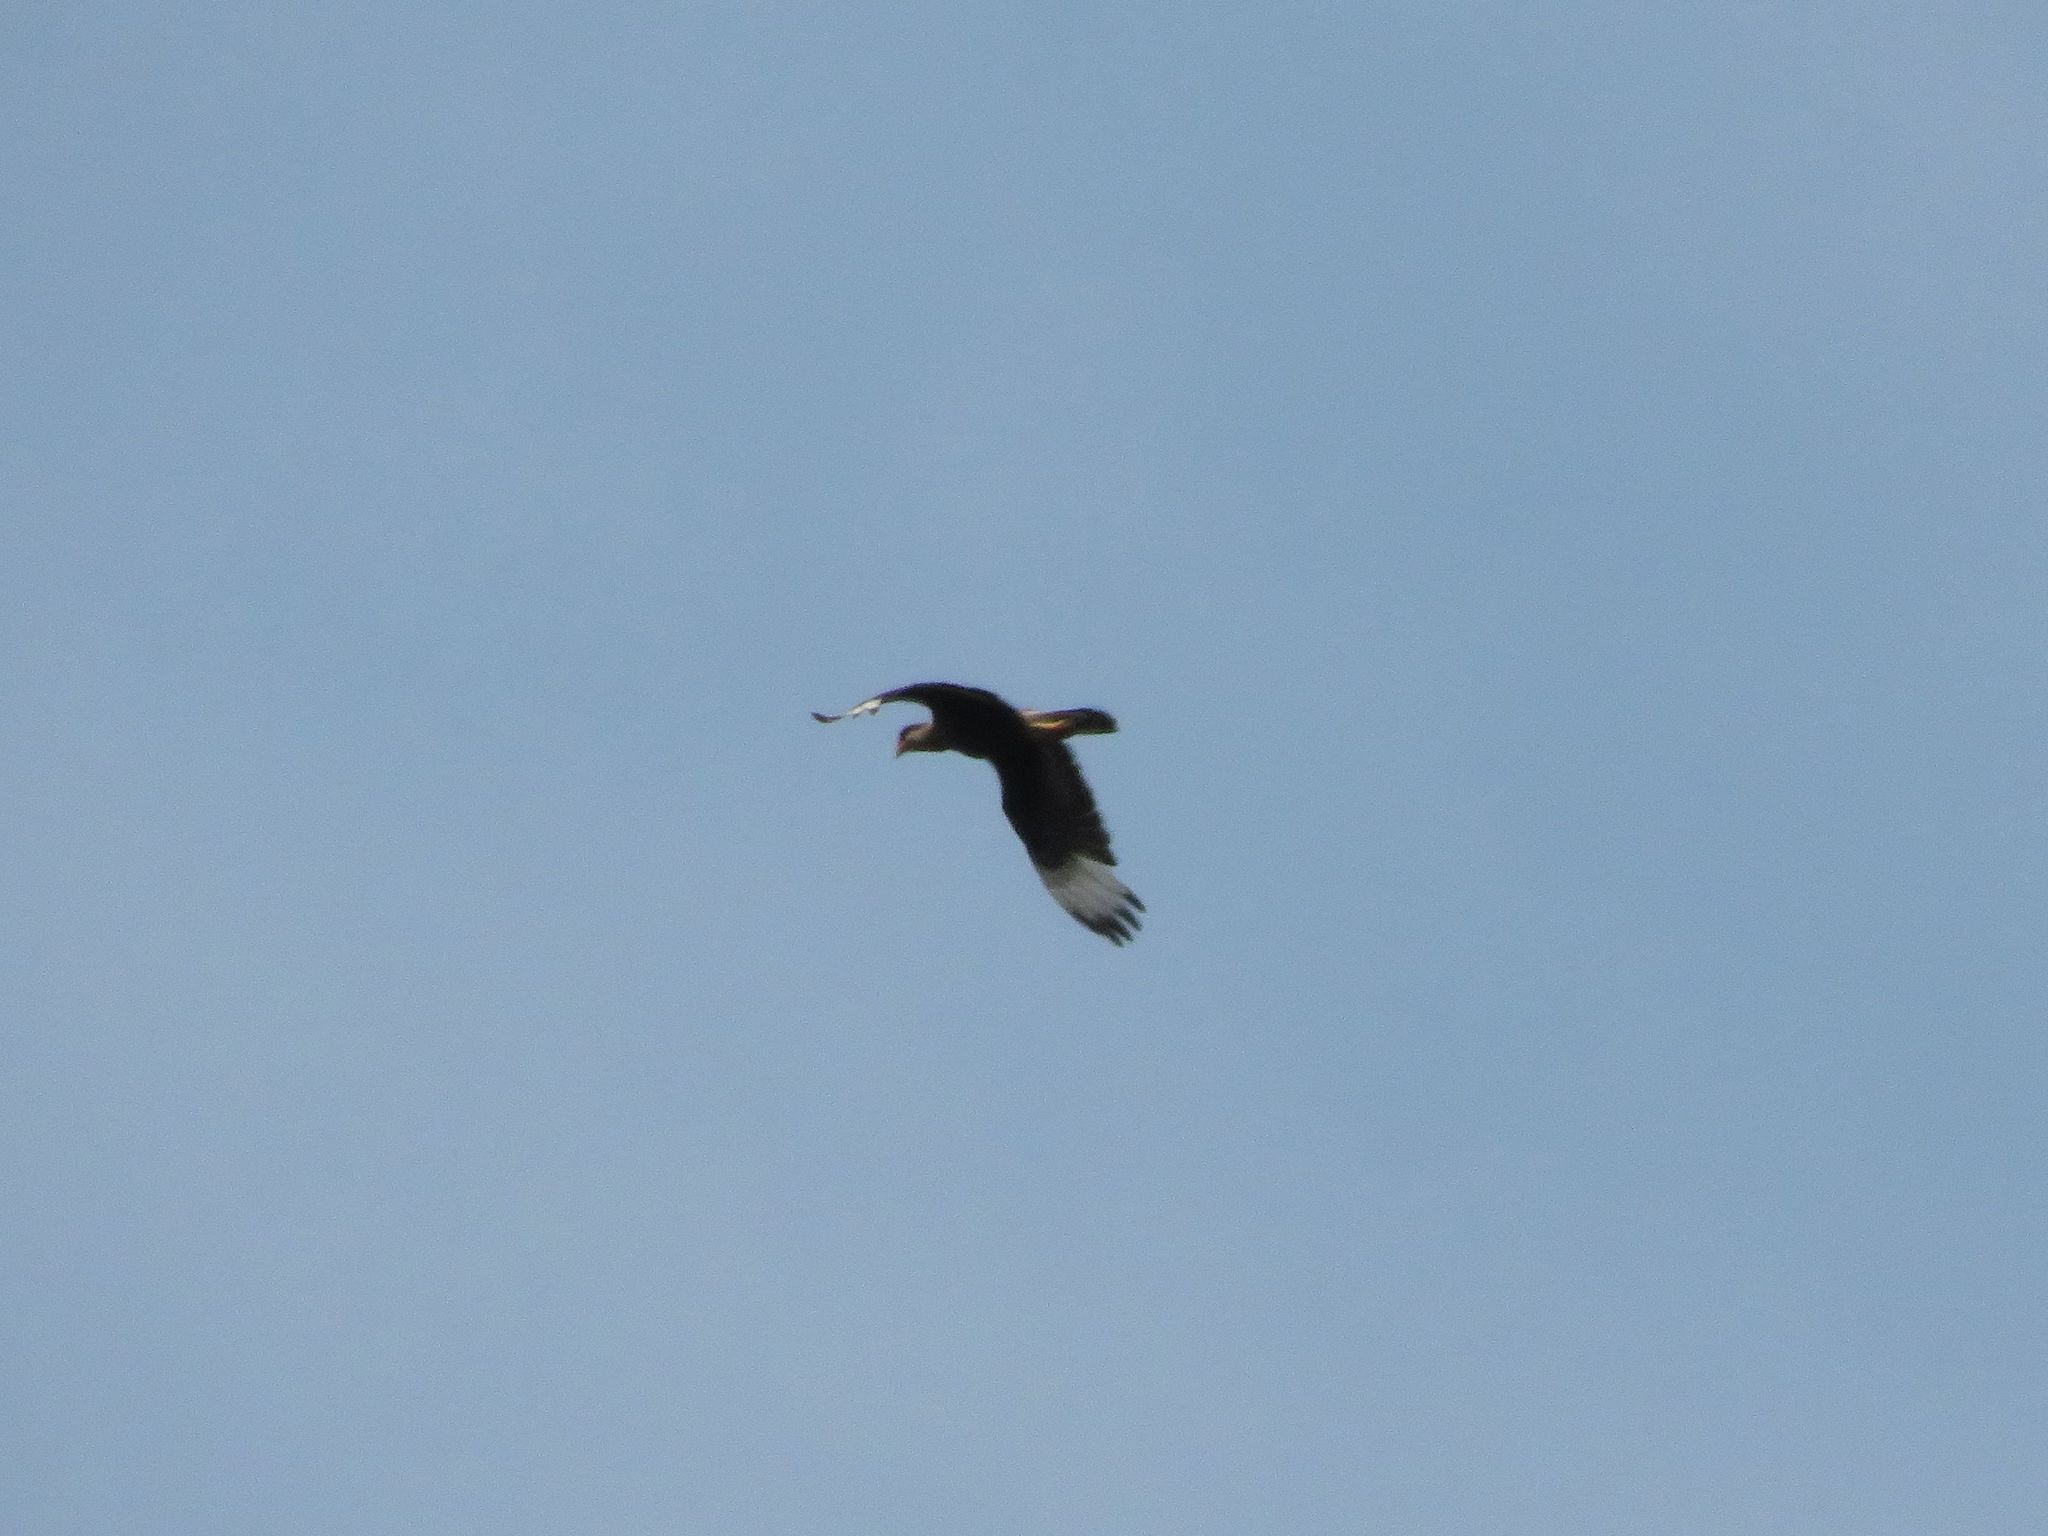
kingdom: Animalia
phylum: Chordata
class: Aves
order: Falconiformes
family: Falconidae
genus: Caracara
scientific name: Caracara plancus
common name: Southern caracara
